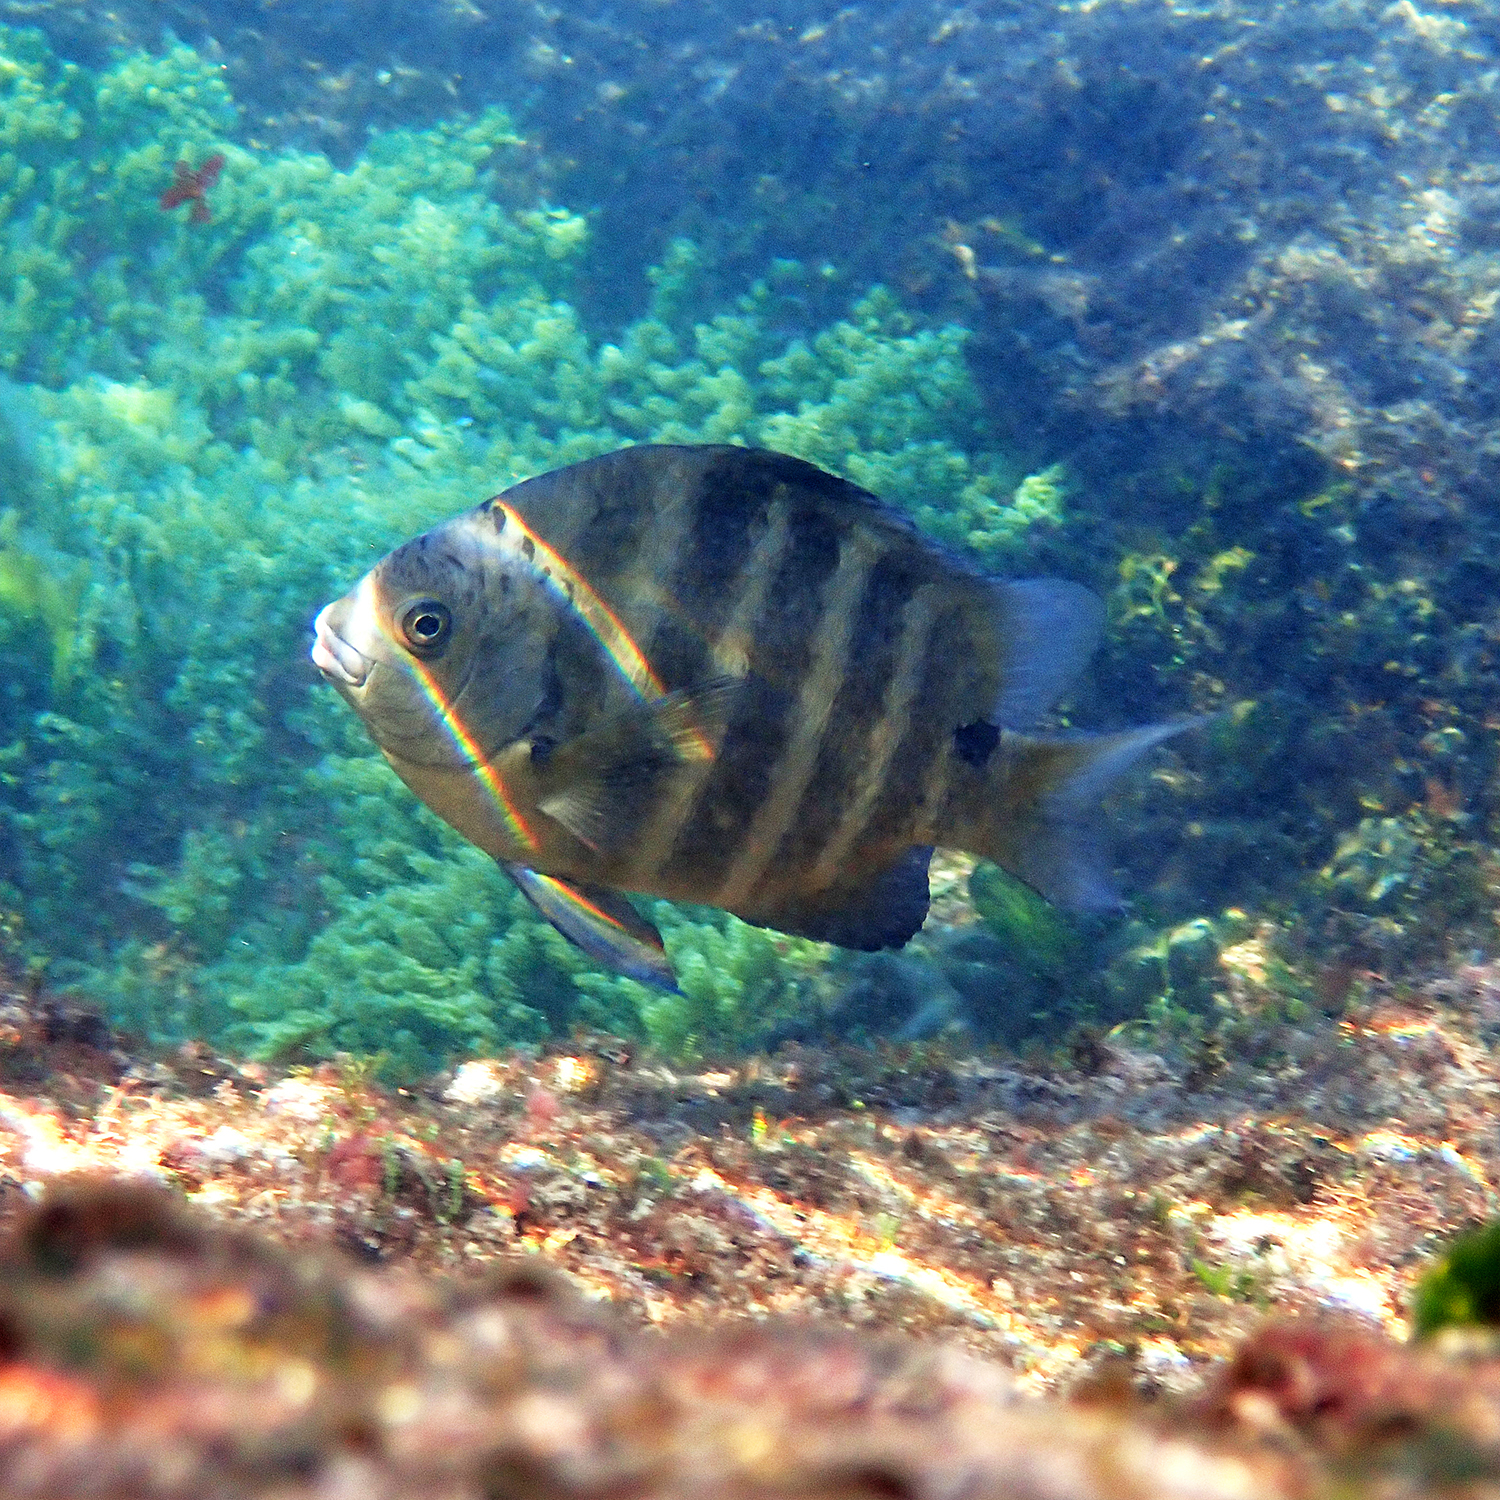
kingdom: Animalia
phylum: Chordata
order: Perciformes
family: Pomacentridae
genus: Abudefduf
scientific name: Abudefduf sordidus
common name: Blackspot sergeant
